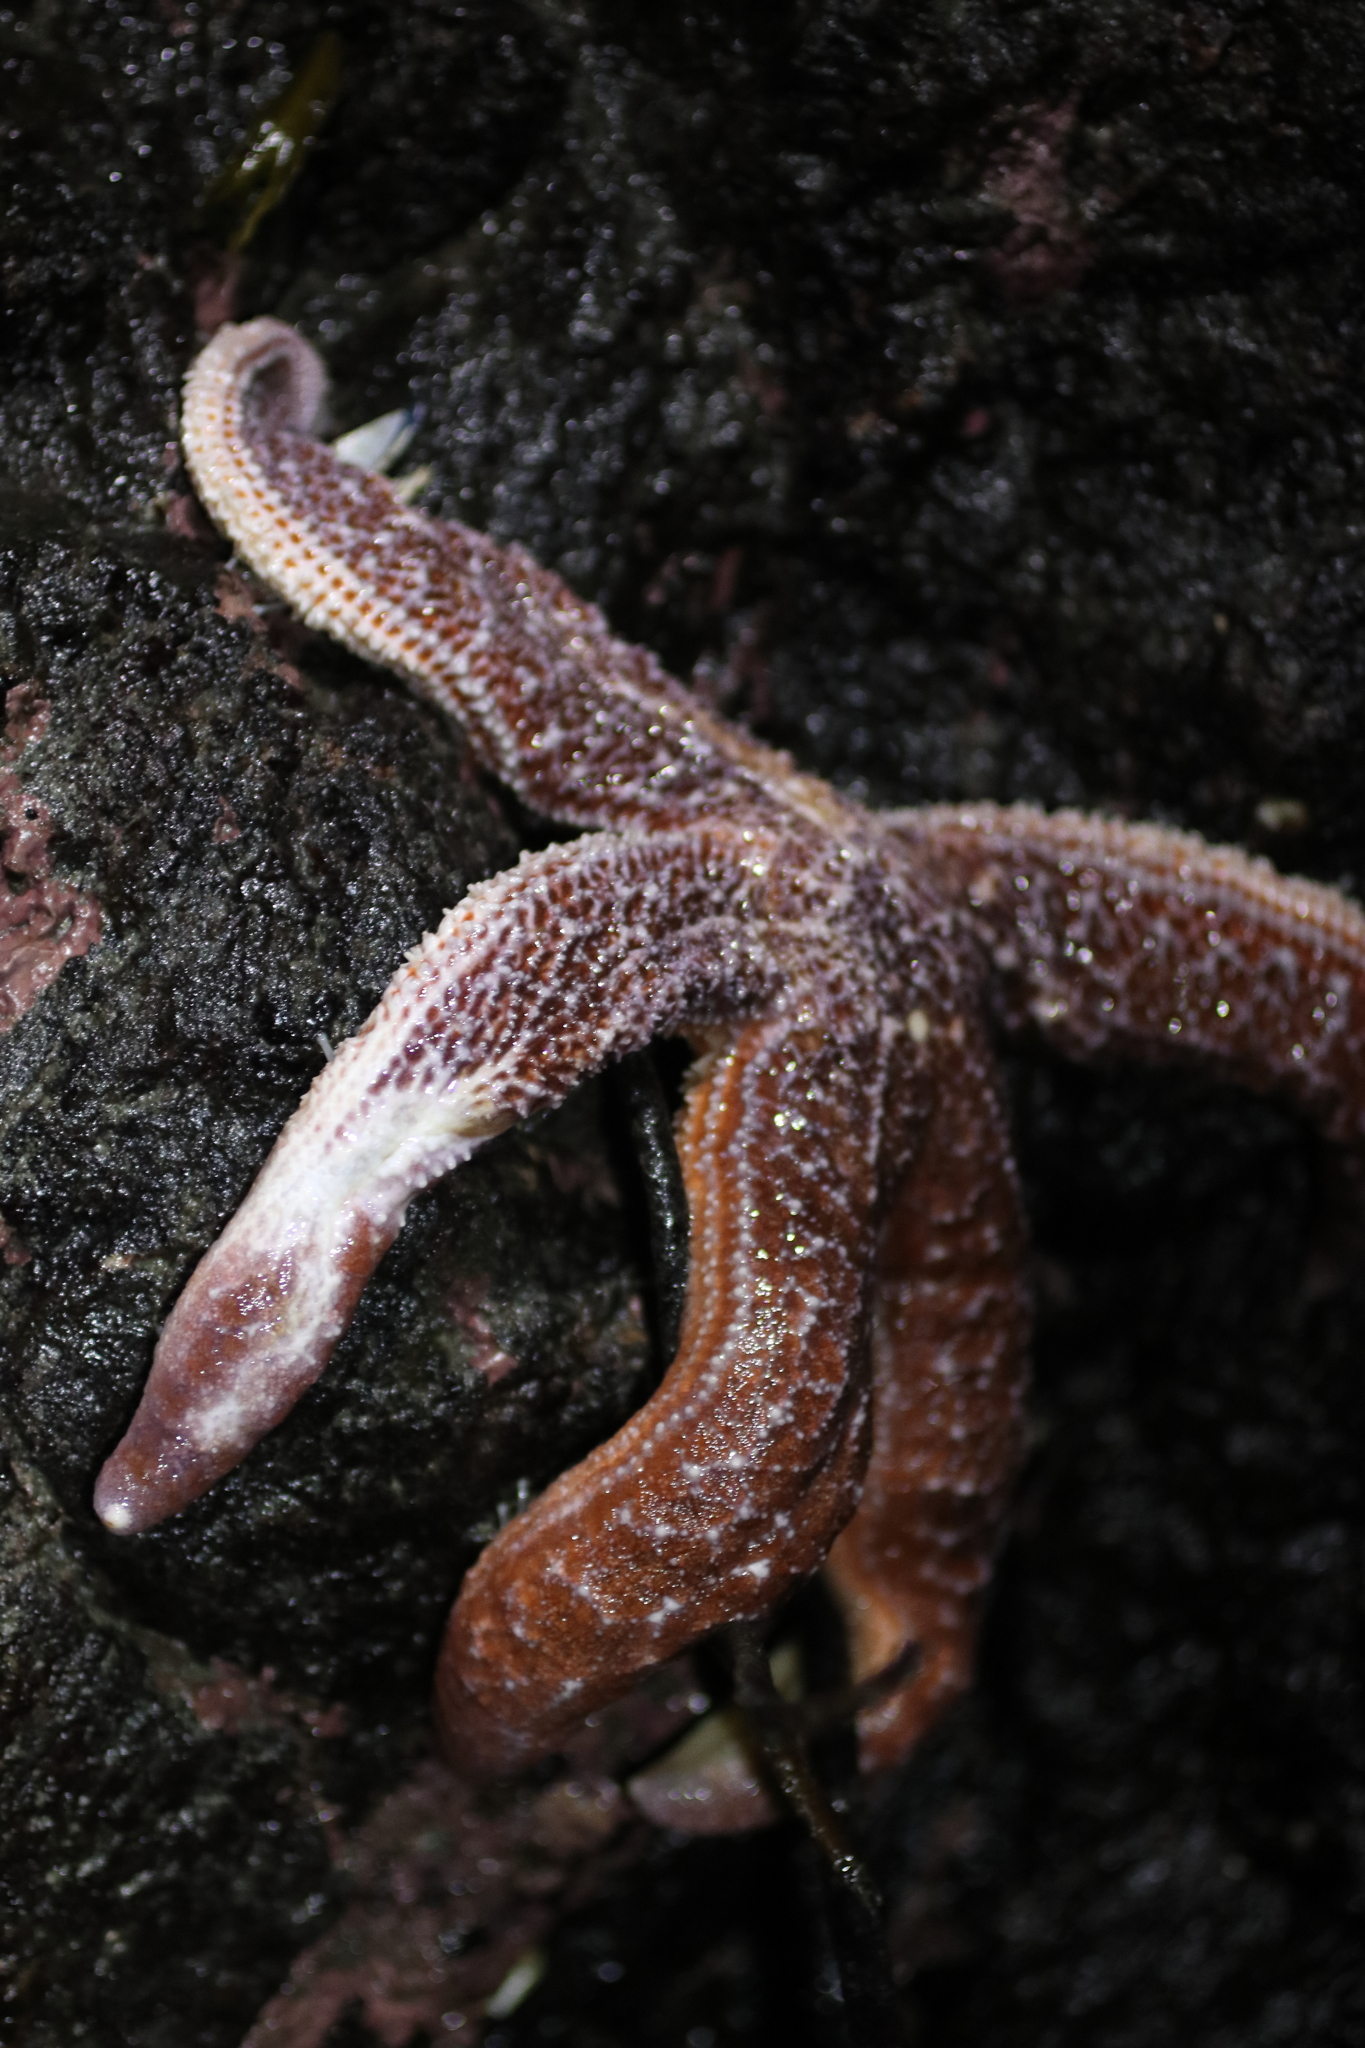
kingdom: Animalia
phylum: Echinodermata
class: Asteroidea
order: Forcipulatida
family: Asteriidae
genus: Evasterias
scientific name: Evasterias troschelii
